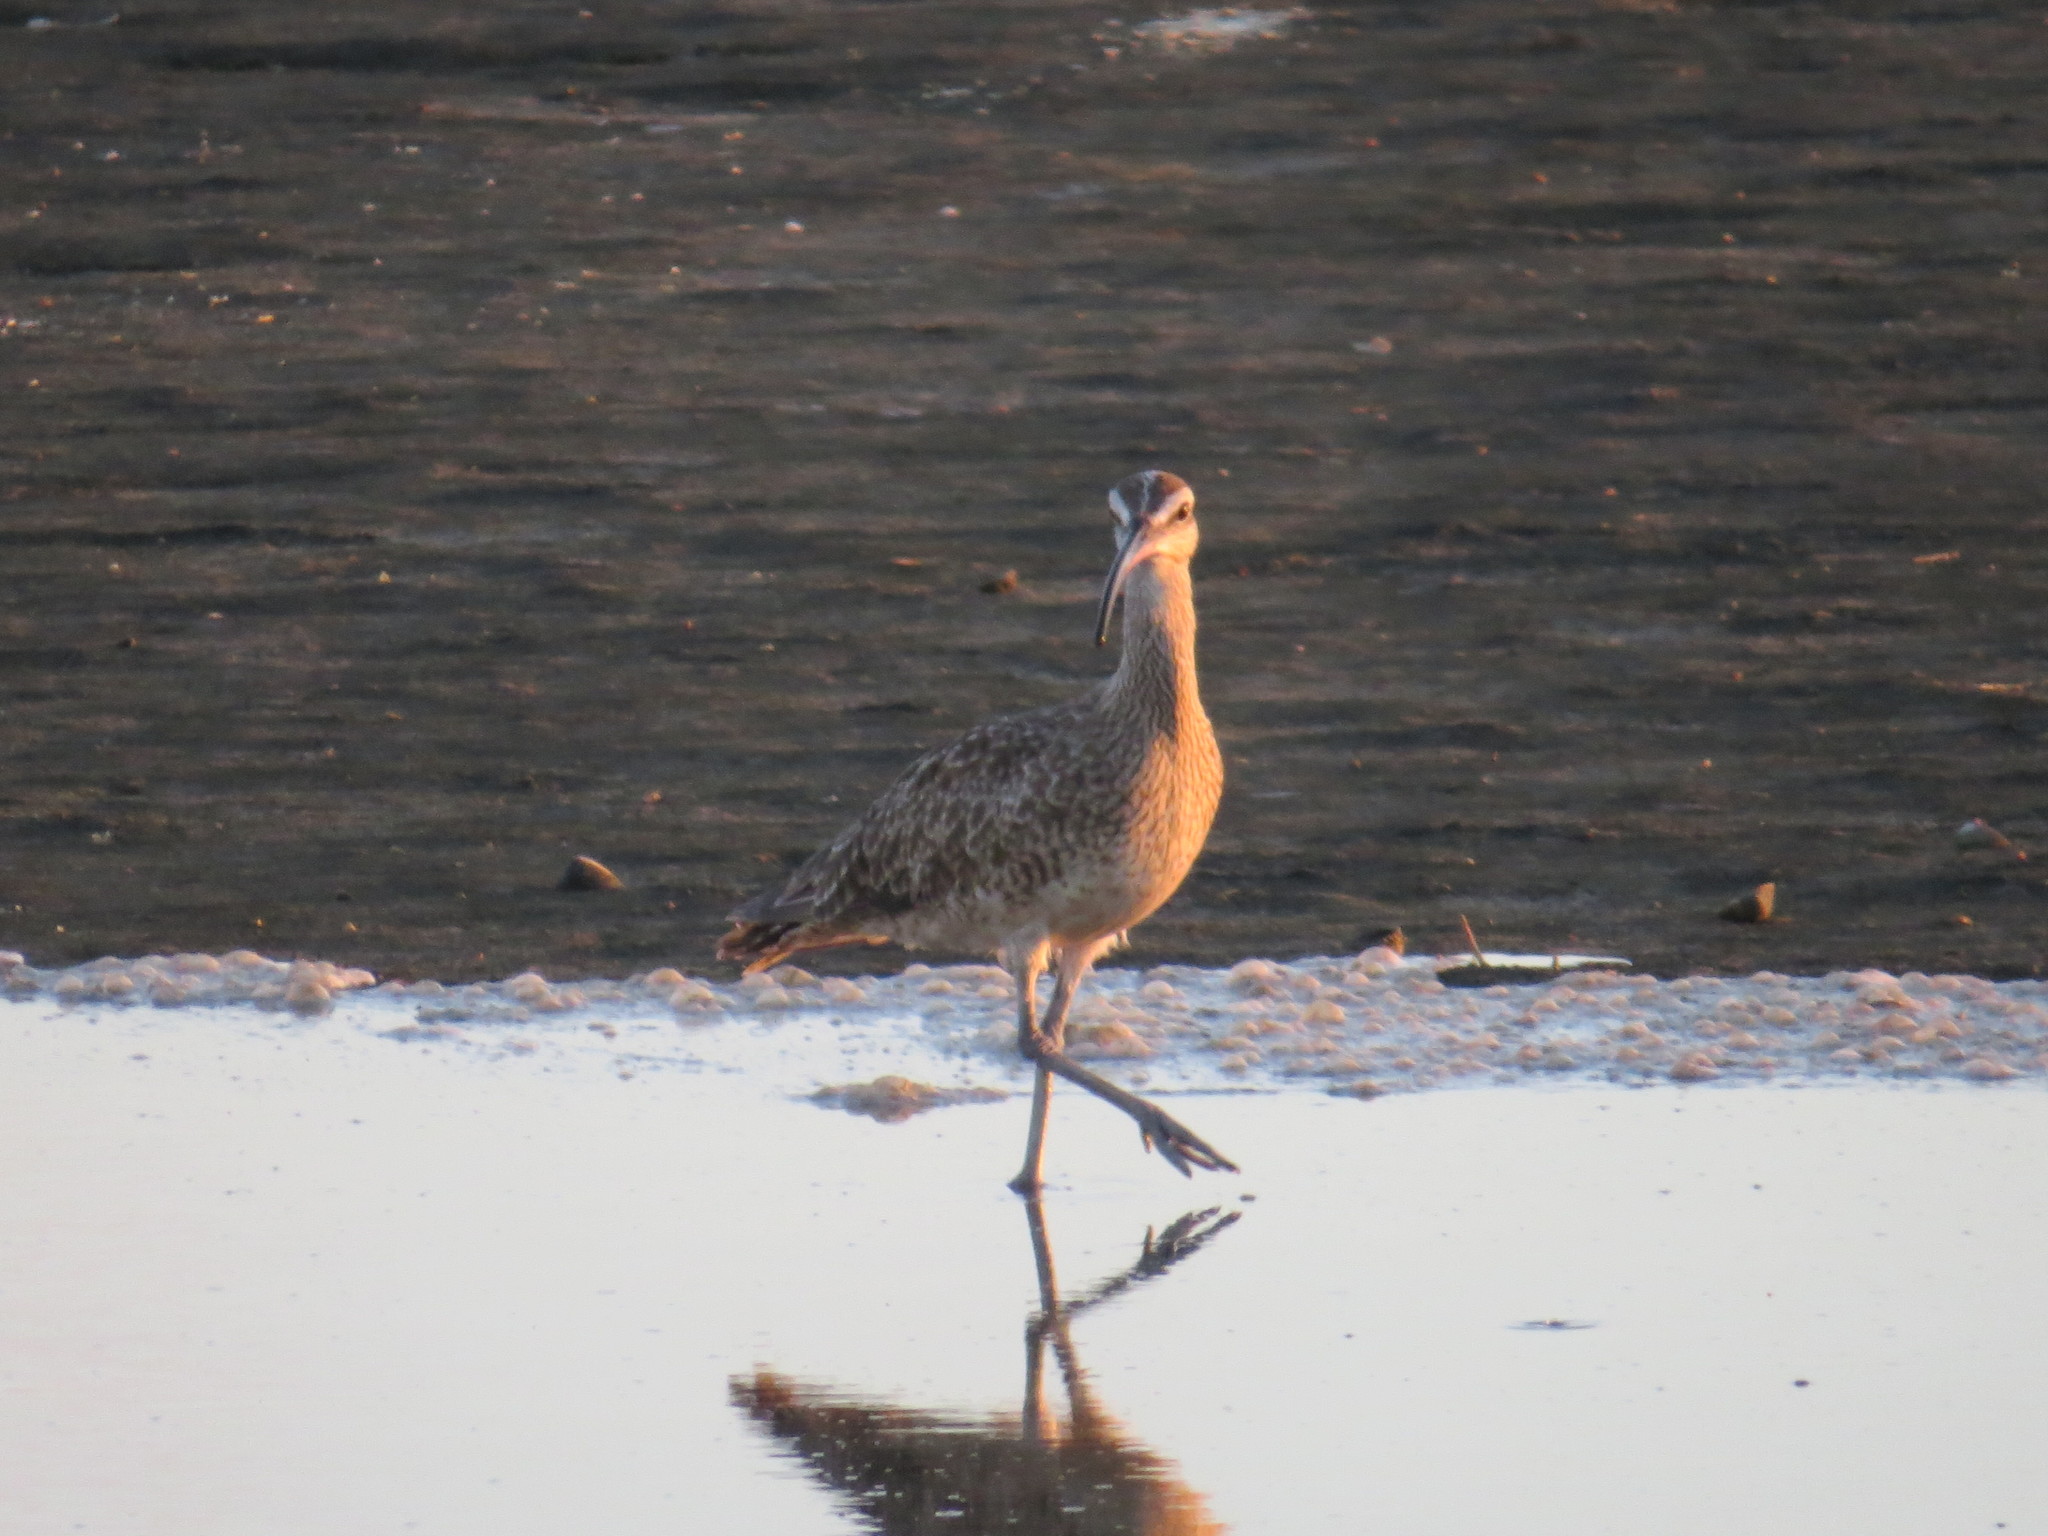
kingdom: Animalia
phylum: Chordata
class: Aves
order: Charadriiformes
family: Scolopacidae
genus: Numenius
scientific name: Numenius phaeopus
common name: Whimbrel
